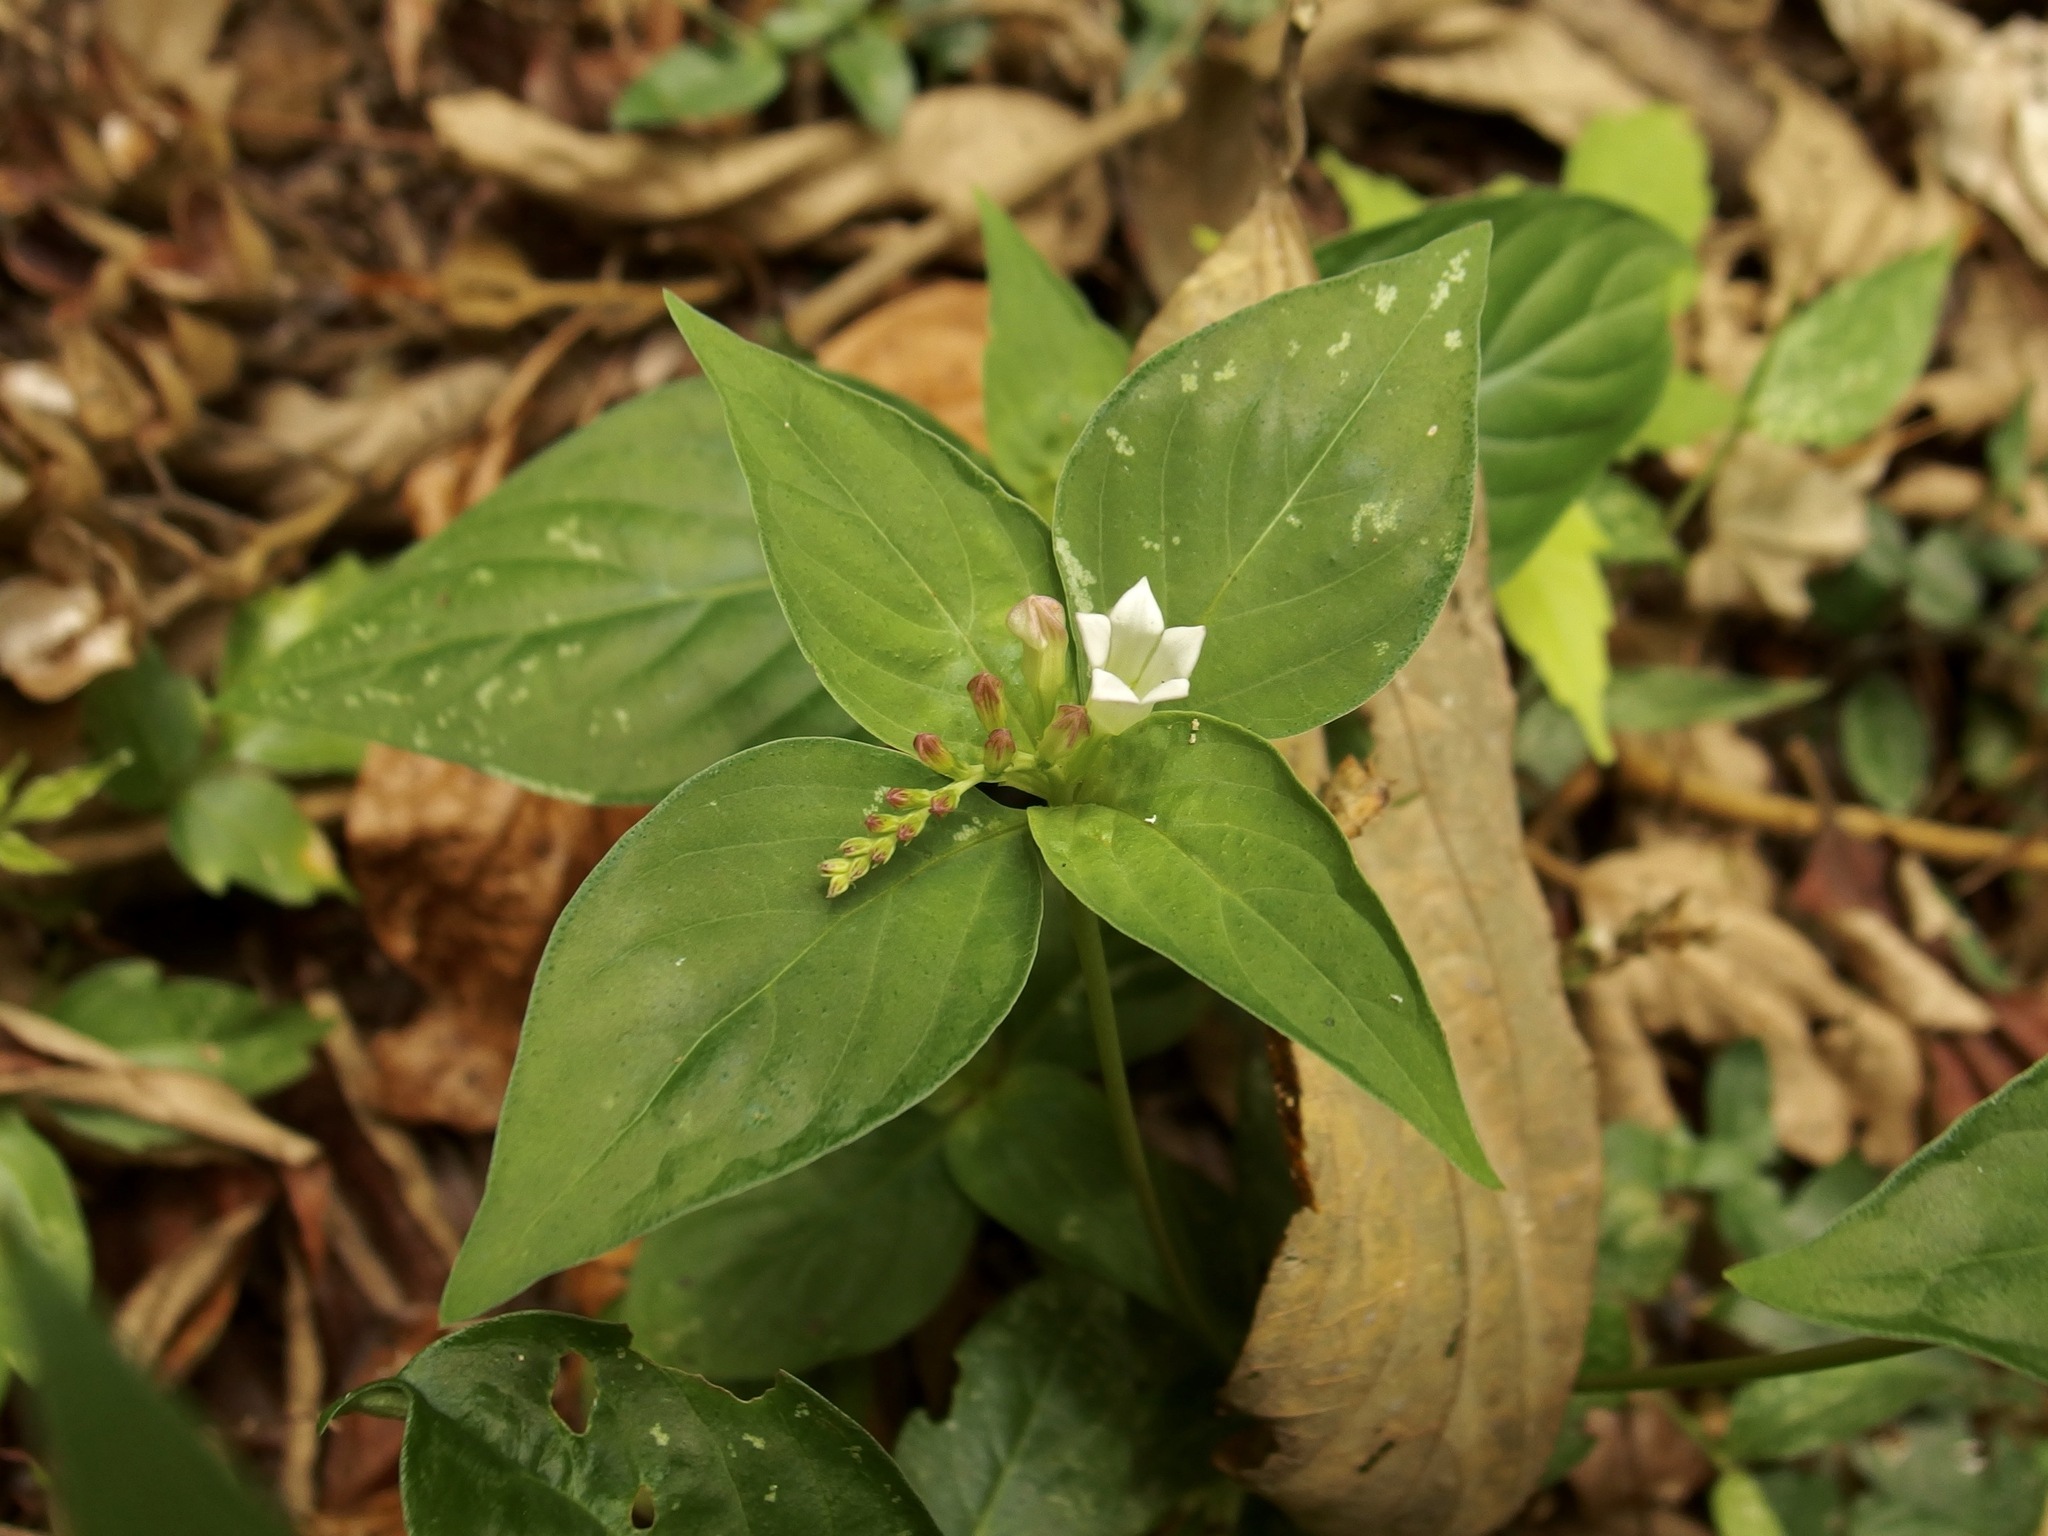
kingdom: Plantae
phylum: Tracheophyta
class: Magnoliopsida
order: Gentianales
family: Loganiaceae
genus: Spigelia
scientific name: Spigelia humboldtiana
